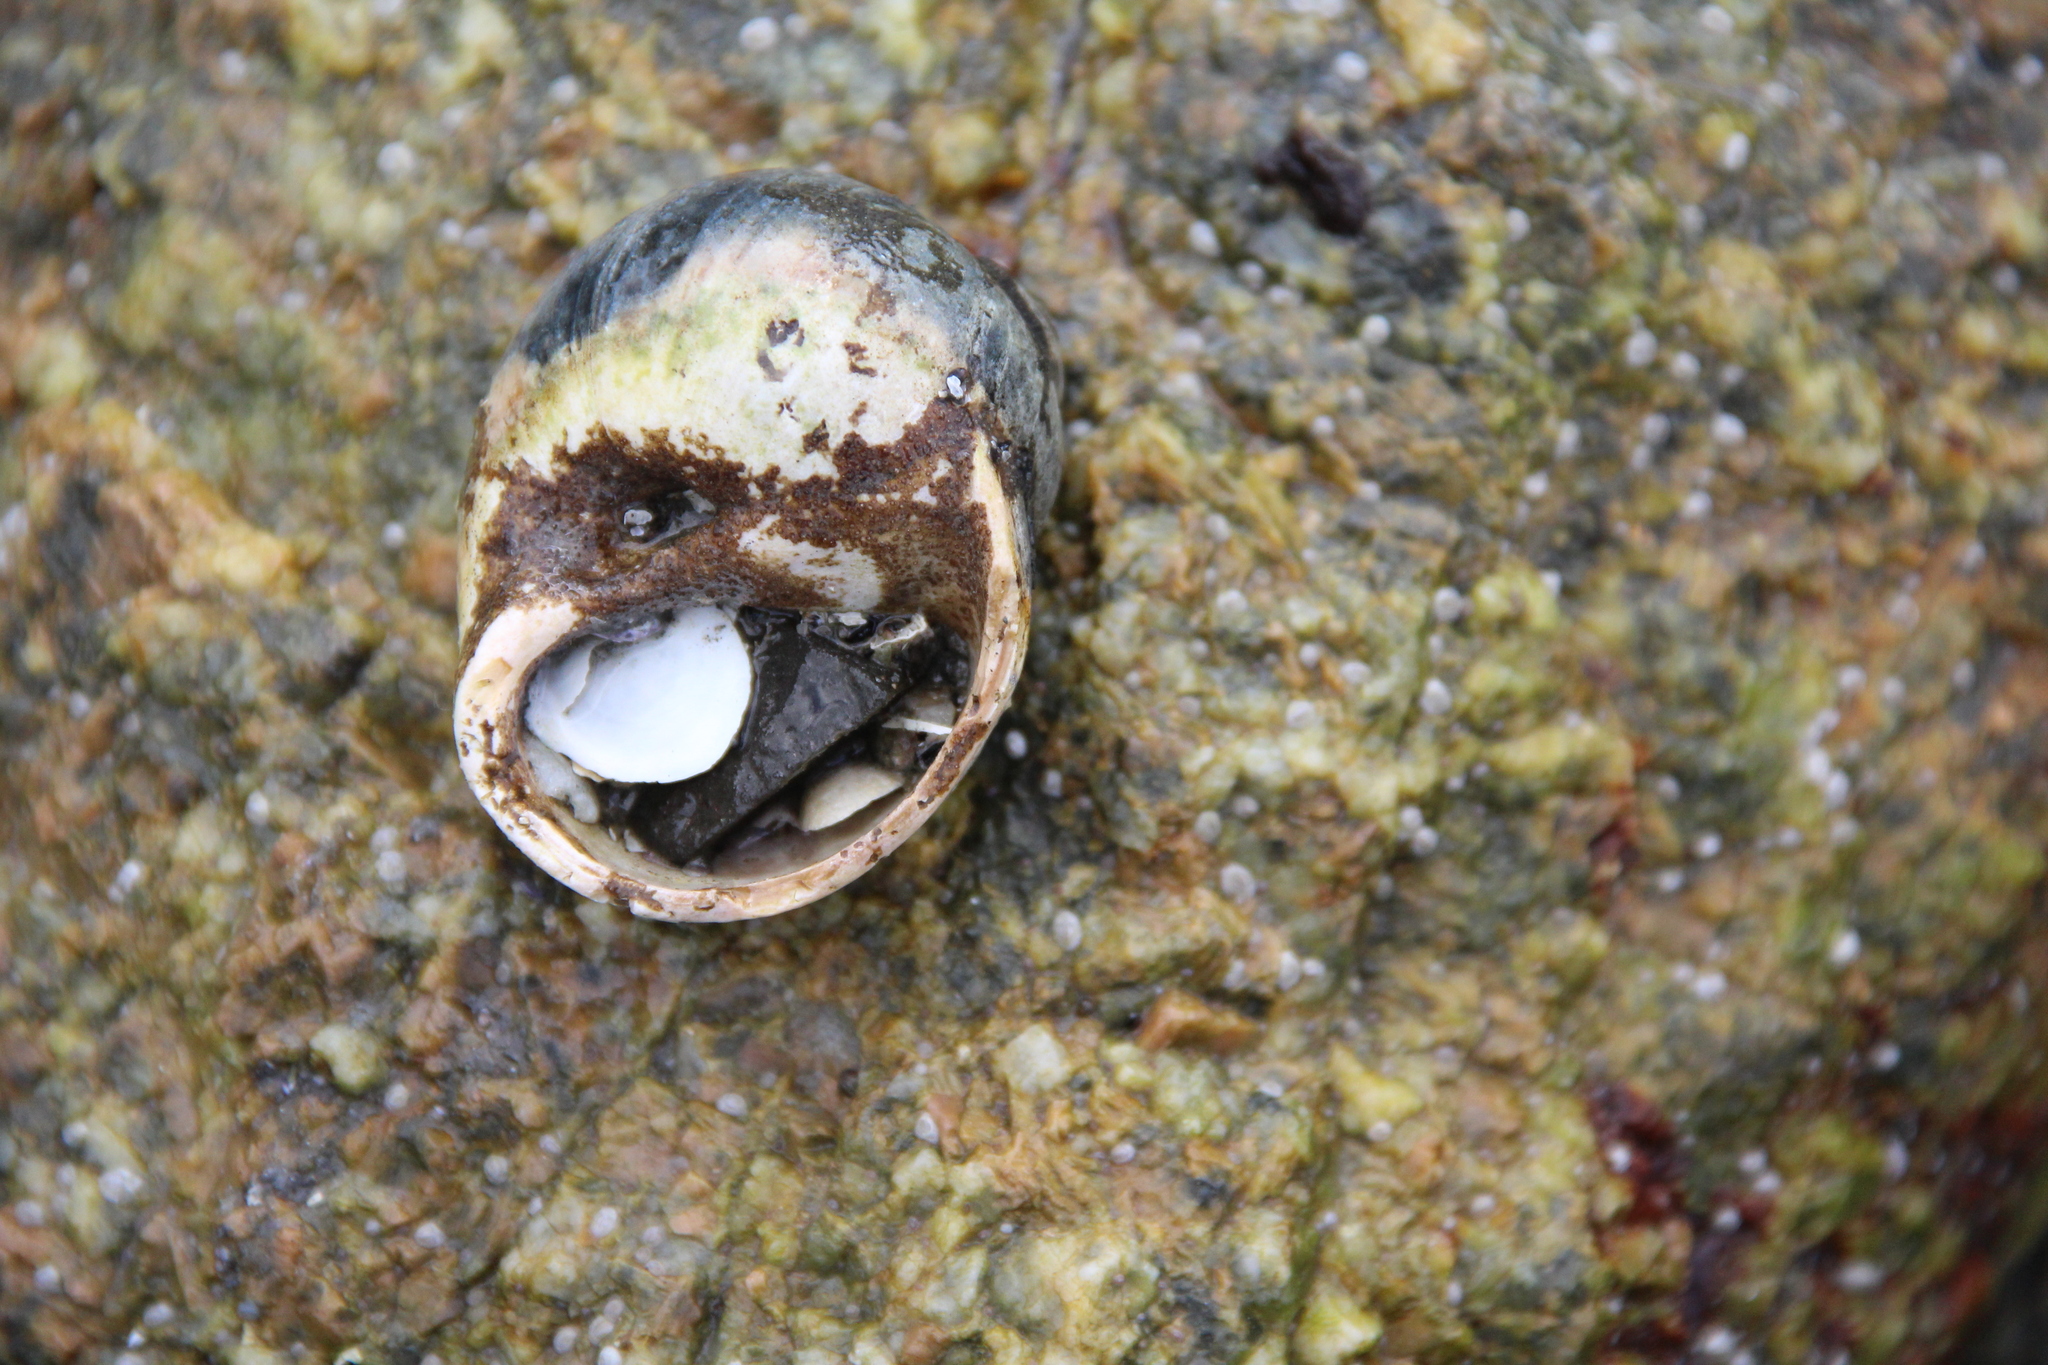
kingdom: Animalia
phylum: Mollusca
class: Gastropoda
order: Littorinimorpha
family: Naticidae
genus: Euspira
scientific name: Euspira heros
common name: Common northern moonsnail
